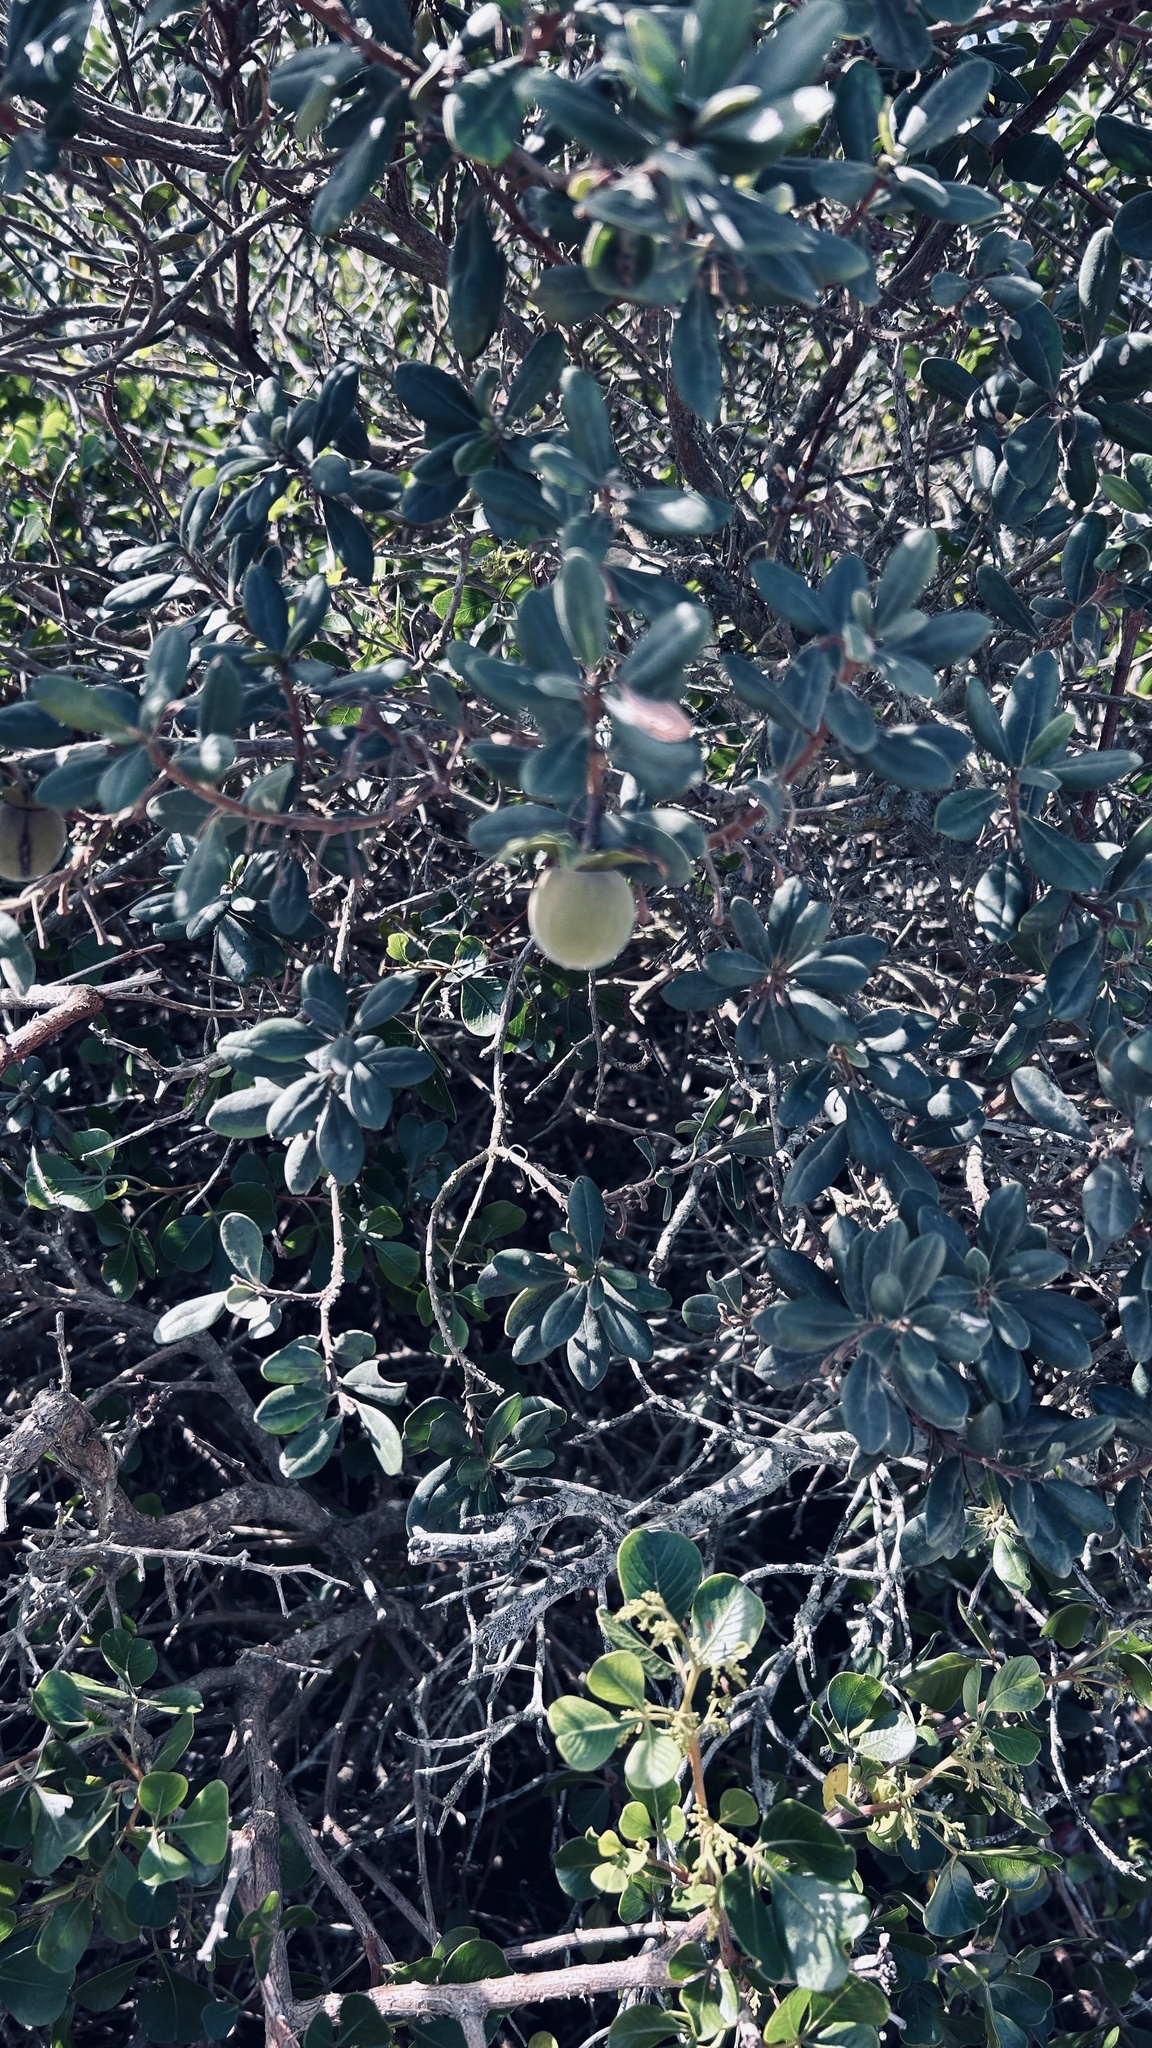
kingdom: Plantae
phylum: Tracheophyta
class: Magnoliopsida
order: Ericales
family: Ebenaceae
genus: Diospyros
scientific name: Diospyros dichrophylla
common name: Common star-apple
